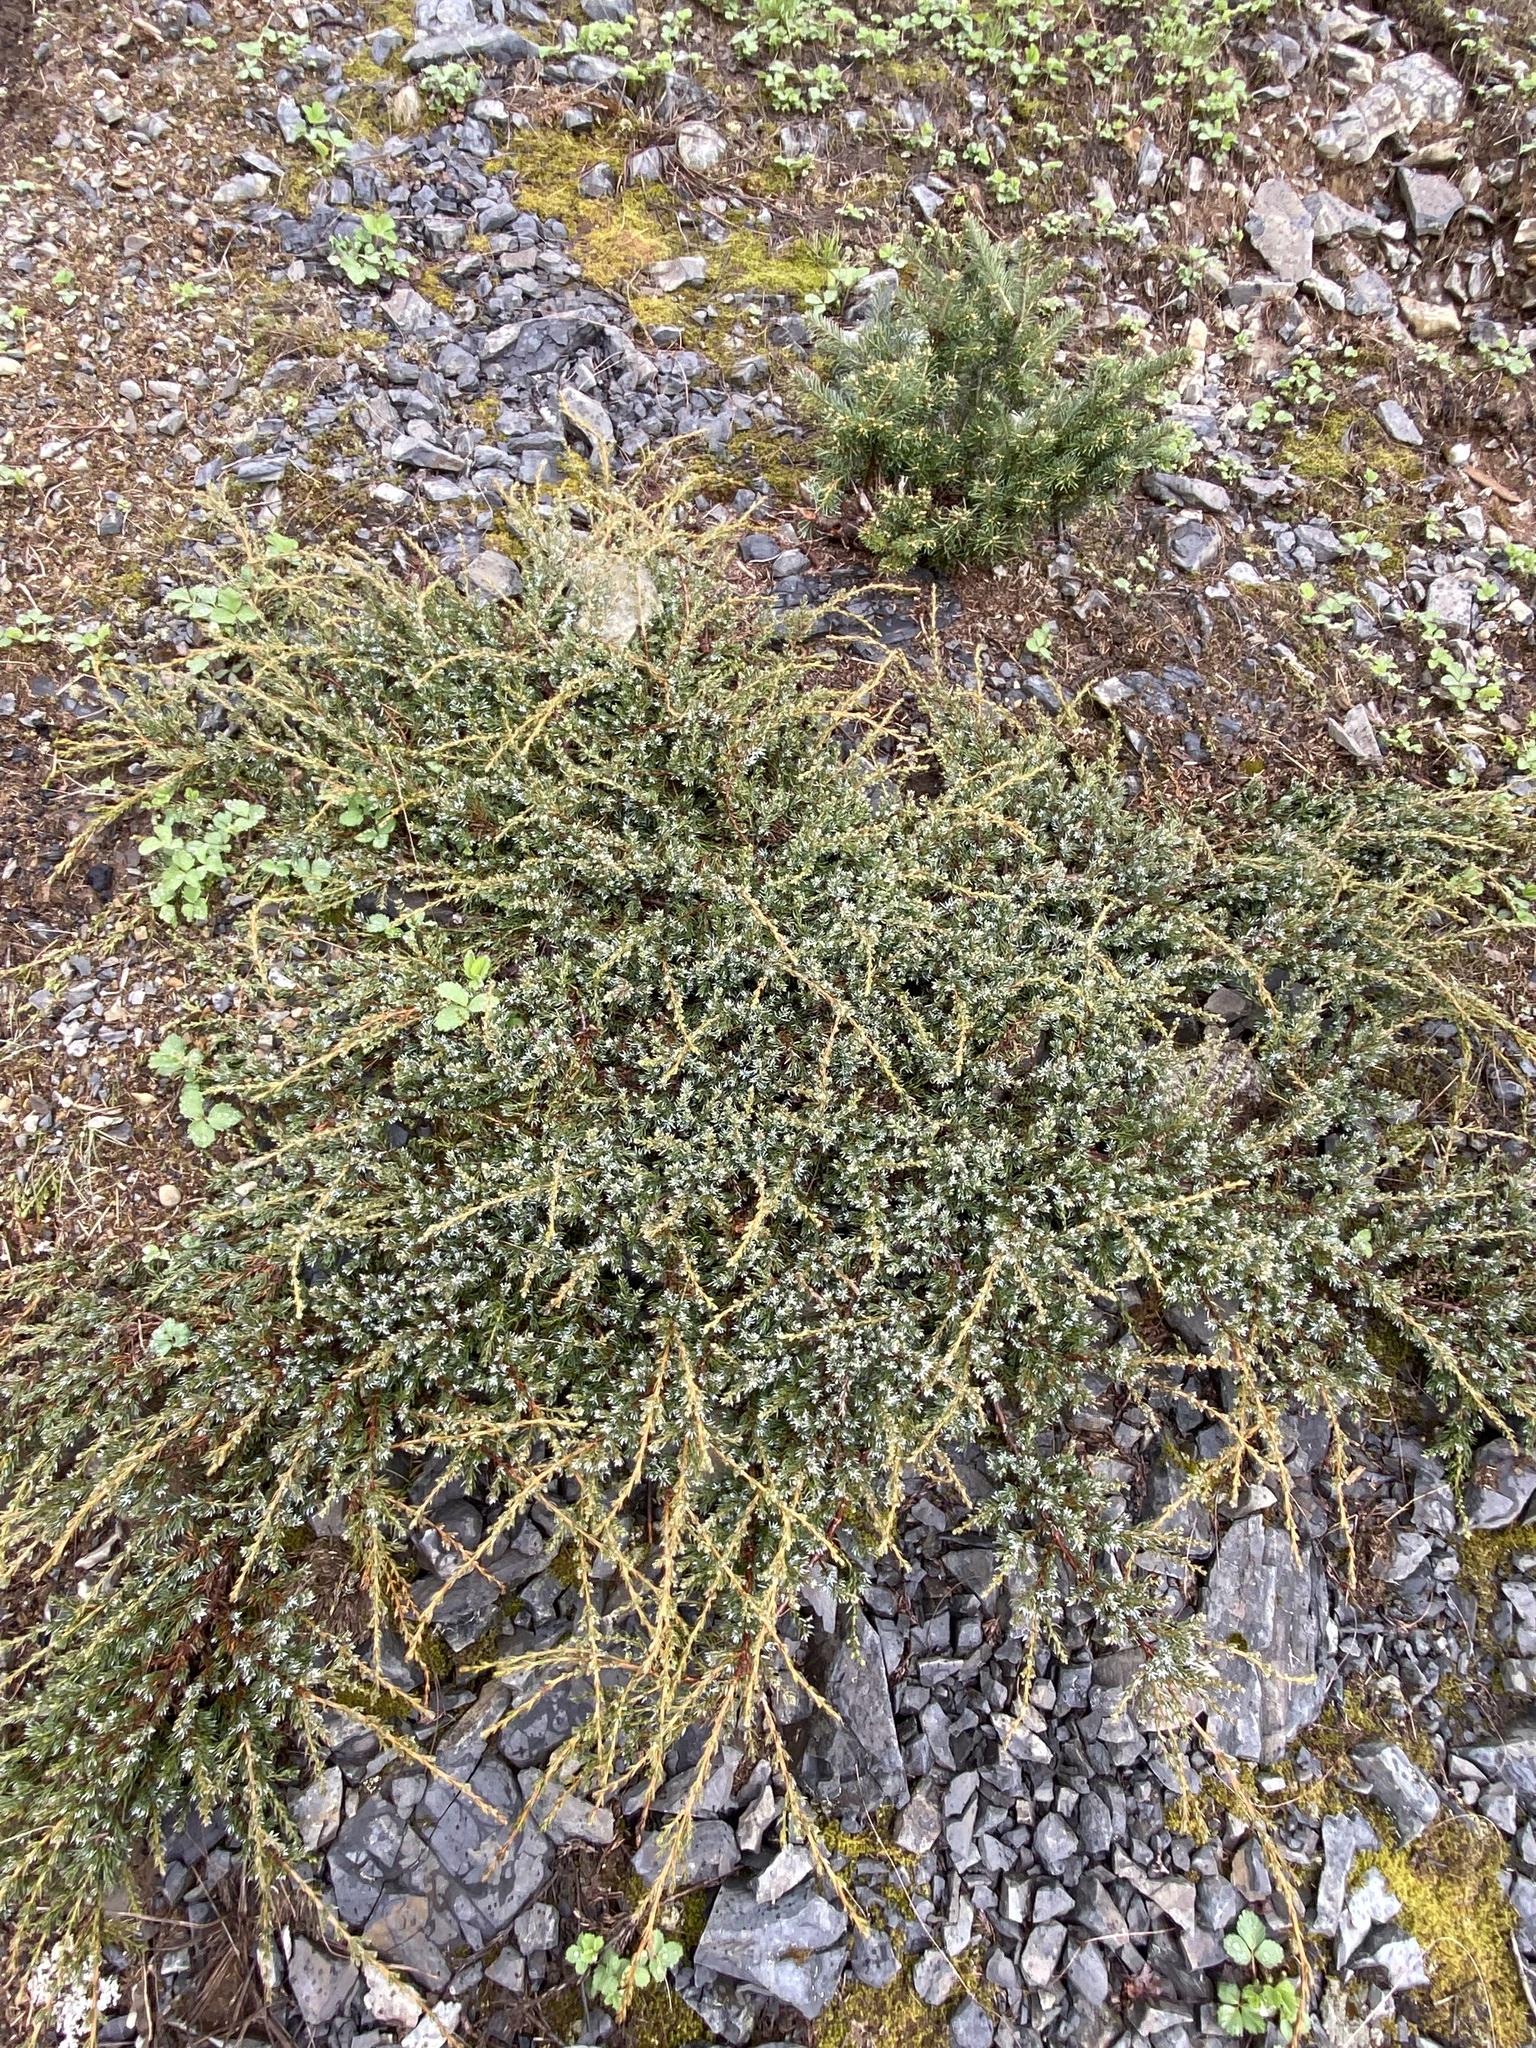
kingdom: Plantae
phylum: Tracheophyta
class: Pinopsida
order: Pinales
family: Cupressaceae
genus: Juniperus
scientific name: Juniperus communis
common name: Common juniper
